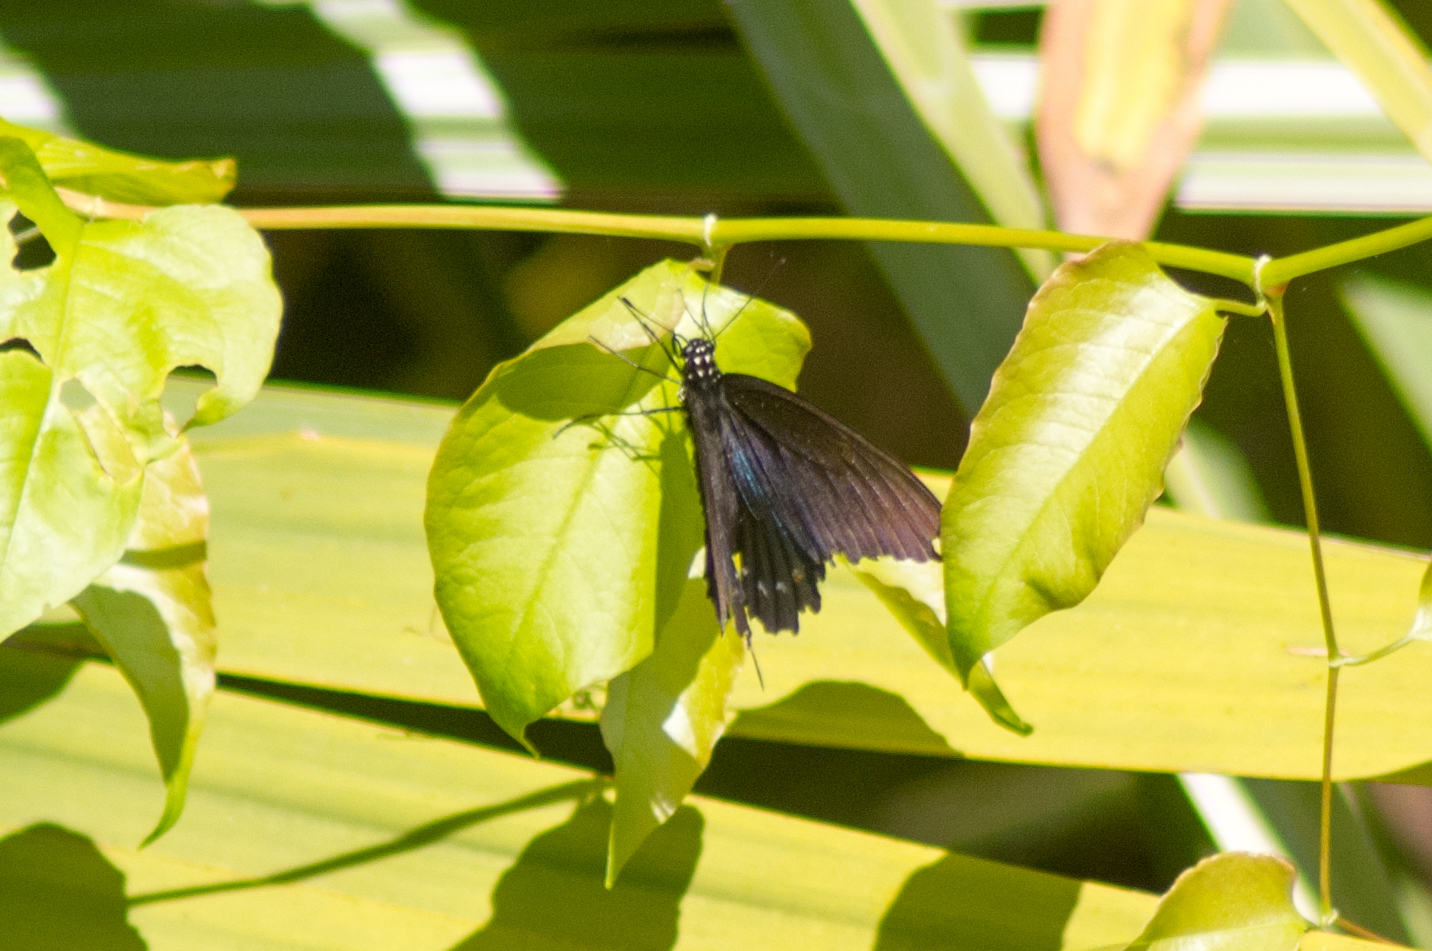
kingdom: Animalia
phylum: Arthropoda
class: Insecta
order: Lepidoptera
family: Papilionidae
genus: Battus
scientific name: Battus philenor
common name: Pipevine swallowtail
